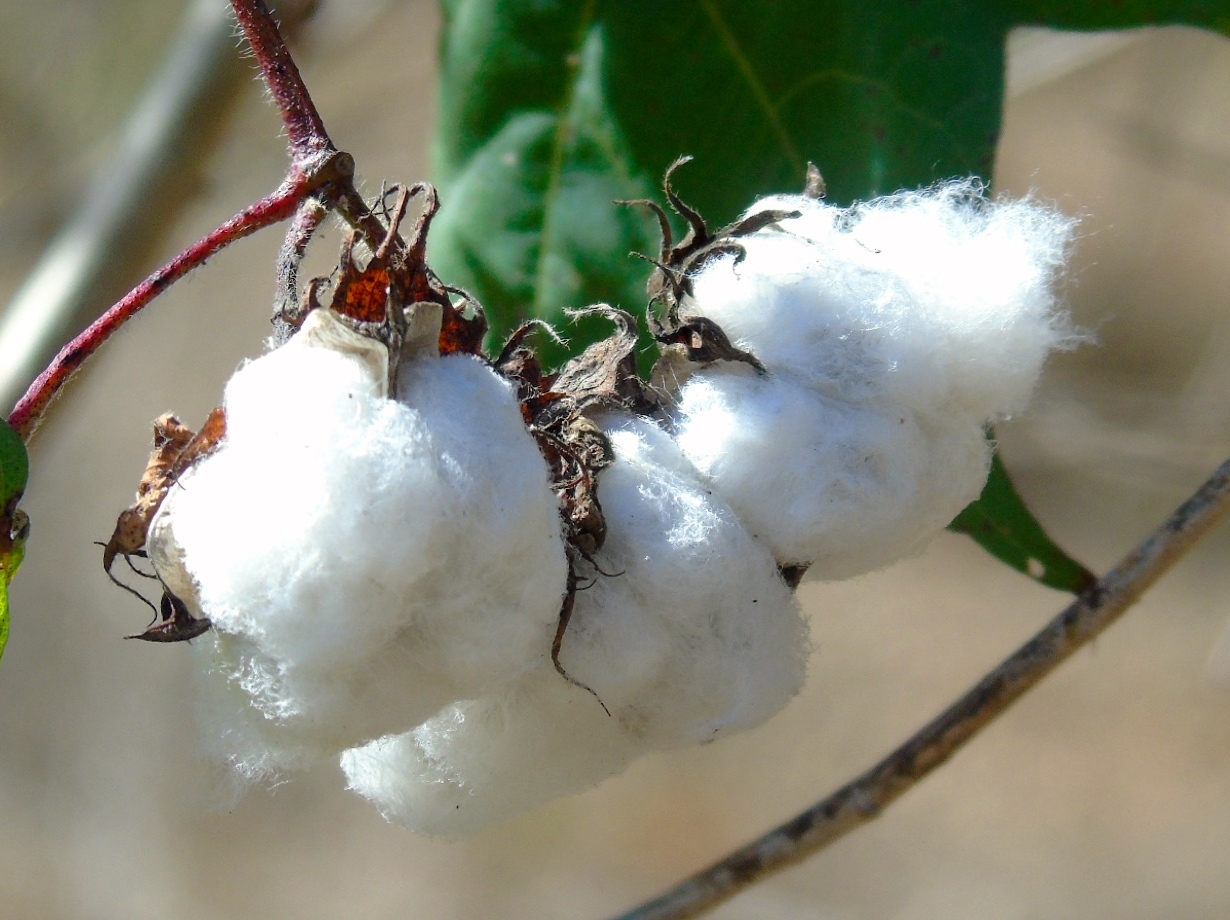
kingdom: Plantae
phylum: Tracheophyta
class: Magnoliopsida
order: Malvales
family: Malvaceae
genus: Gossypium
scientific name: Gossypium hirsutum
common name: Cotton
